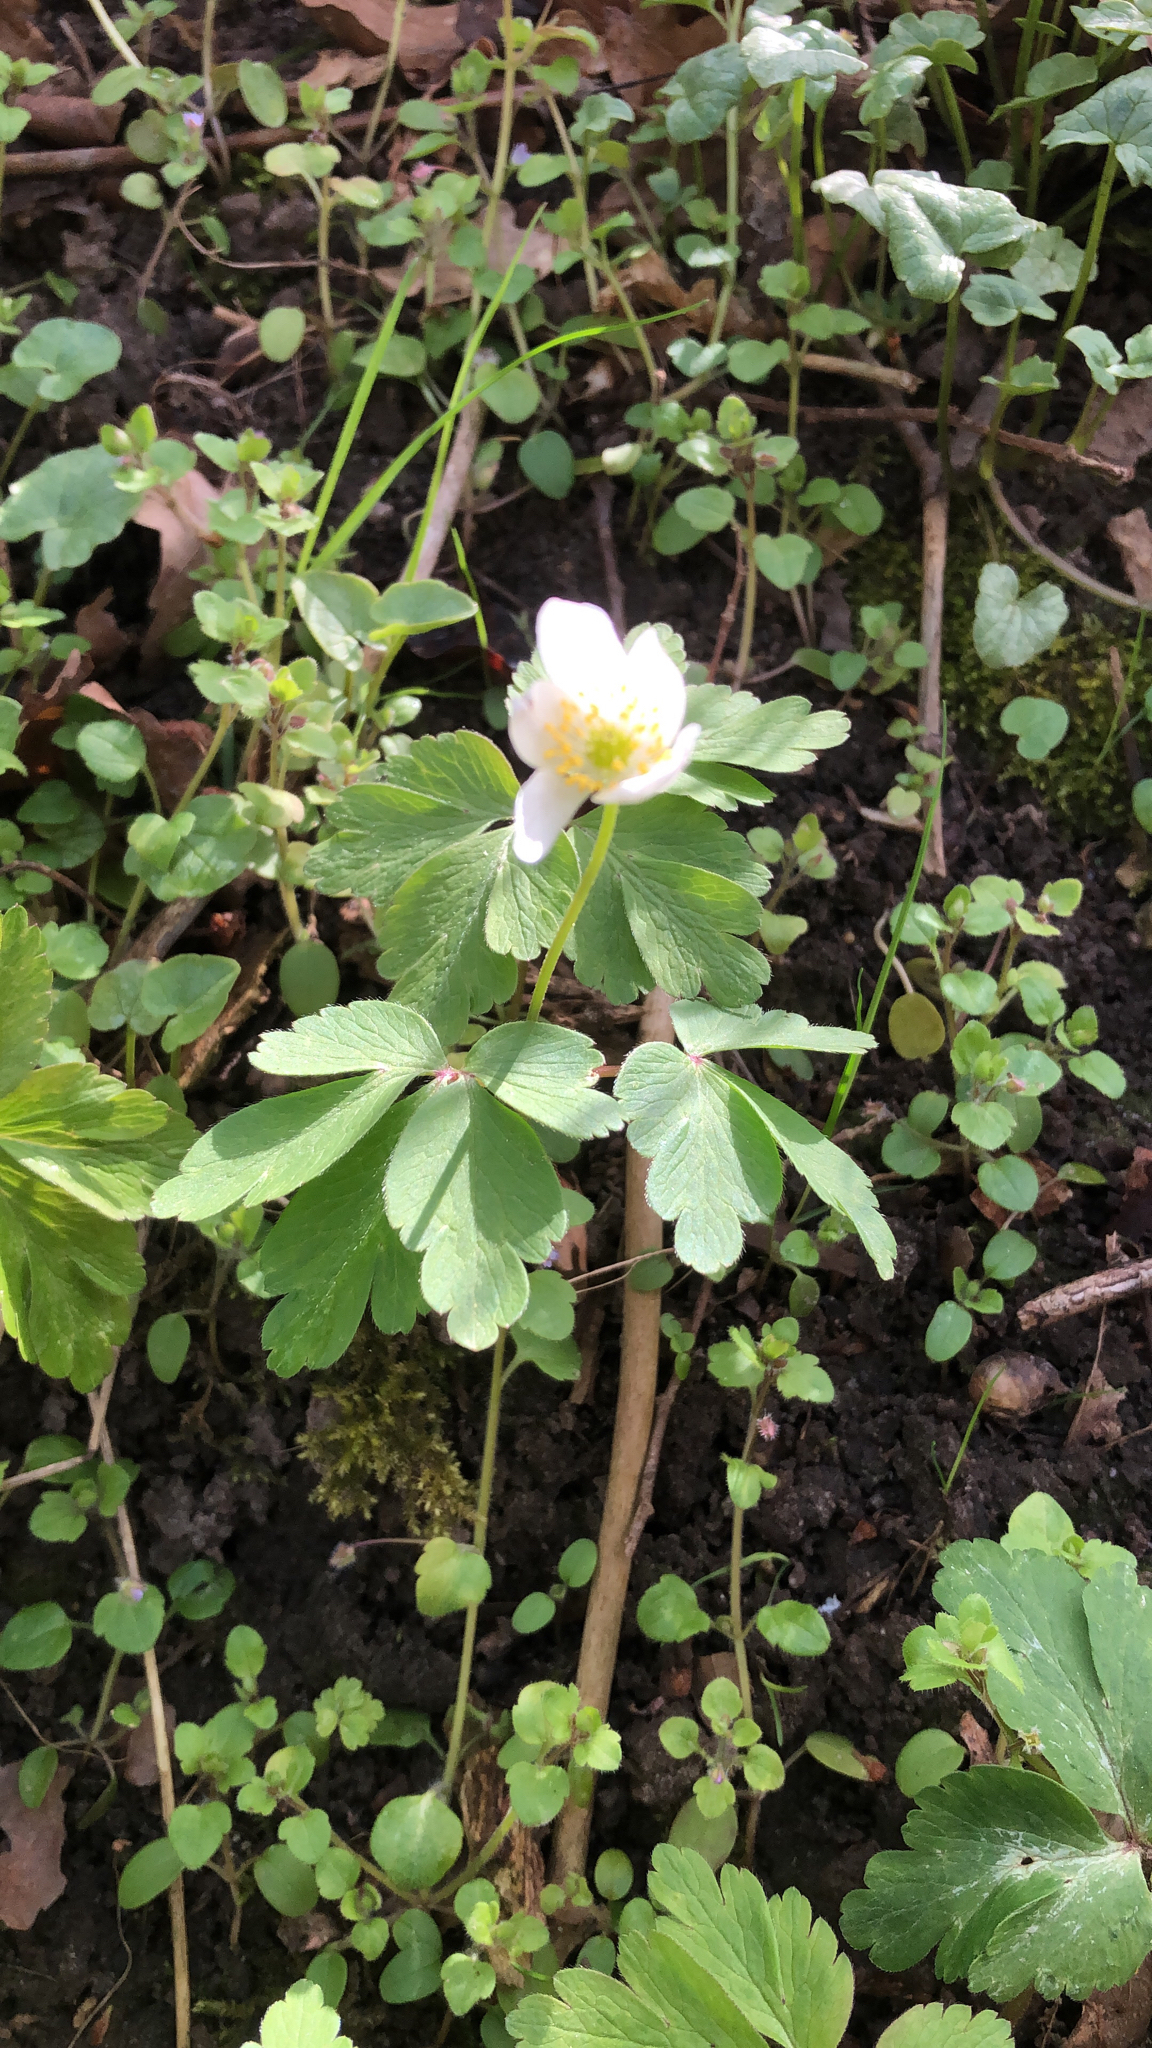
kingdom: Plantae
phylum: Tracheophyta
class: Magnoliopsida
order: Ranunculales
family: Ranunculaceae
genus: Anemone
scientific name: Anemone nemorosa
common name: Wood anemone
